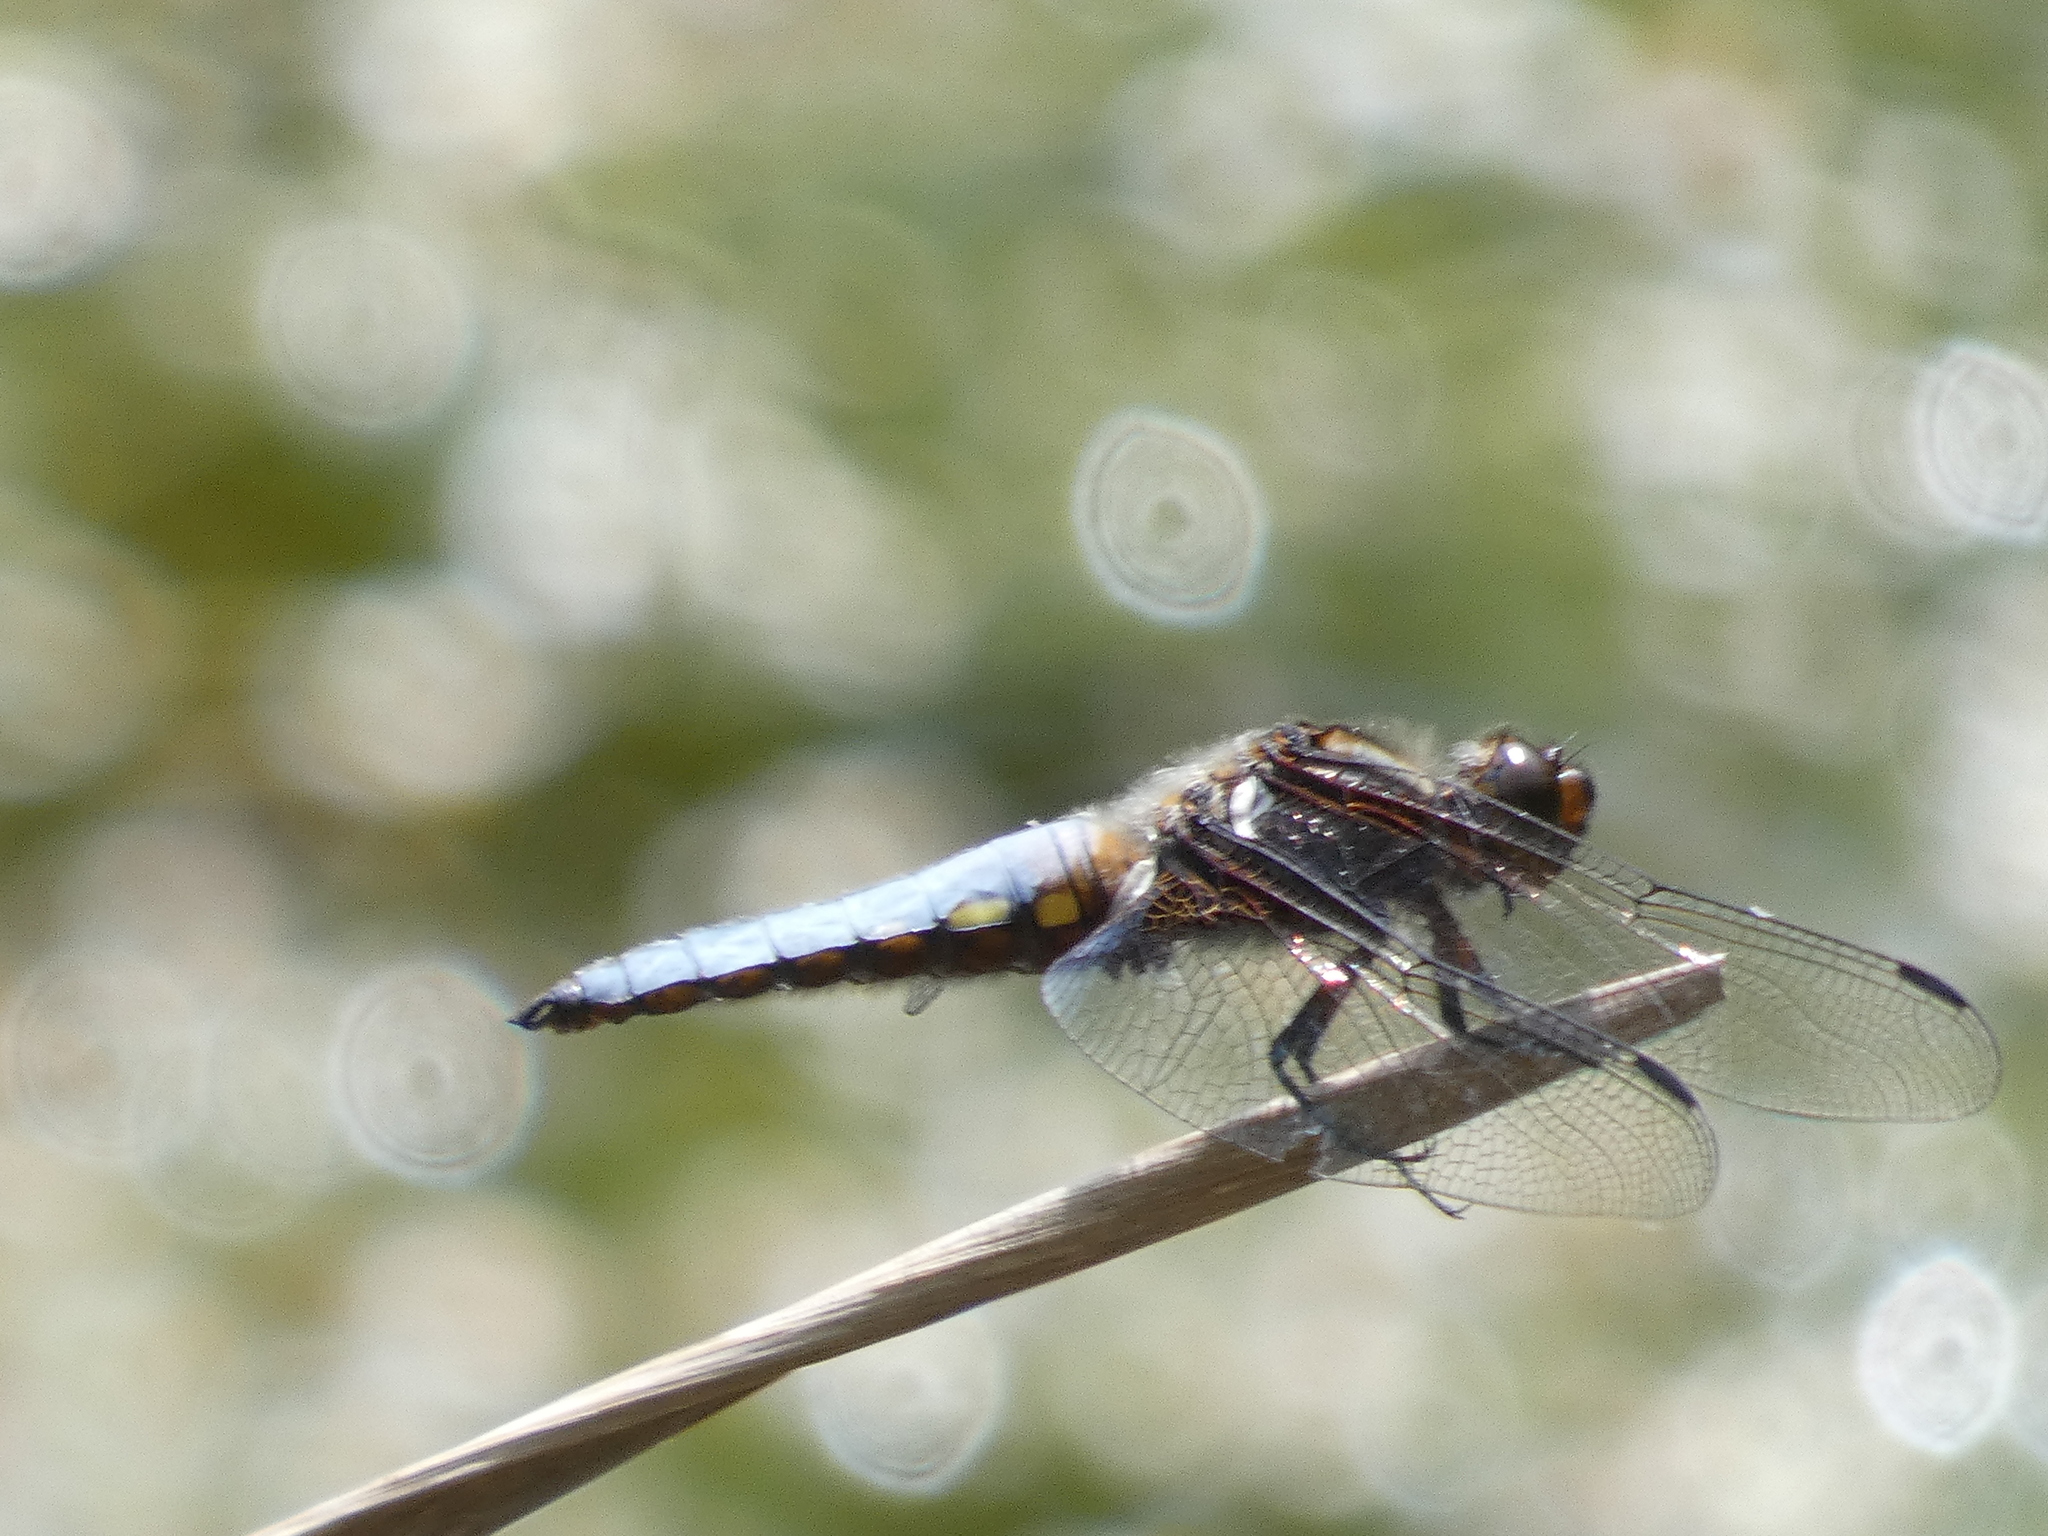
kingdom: Animalia
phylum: Arthropoda
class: Insecta
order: Odonata
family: Libellulidae
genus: Libellula
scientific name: Libellula depressa
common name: Broad-bodied chaser
